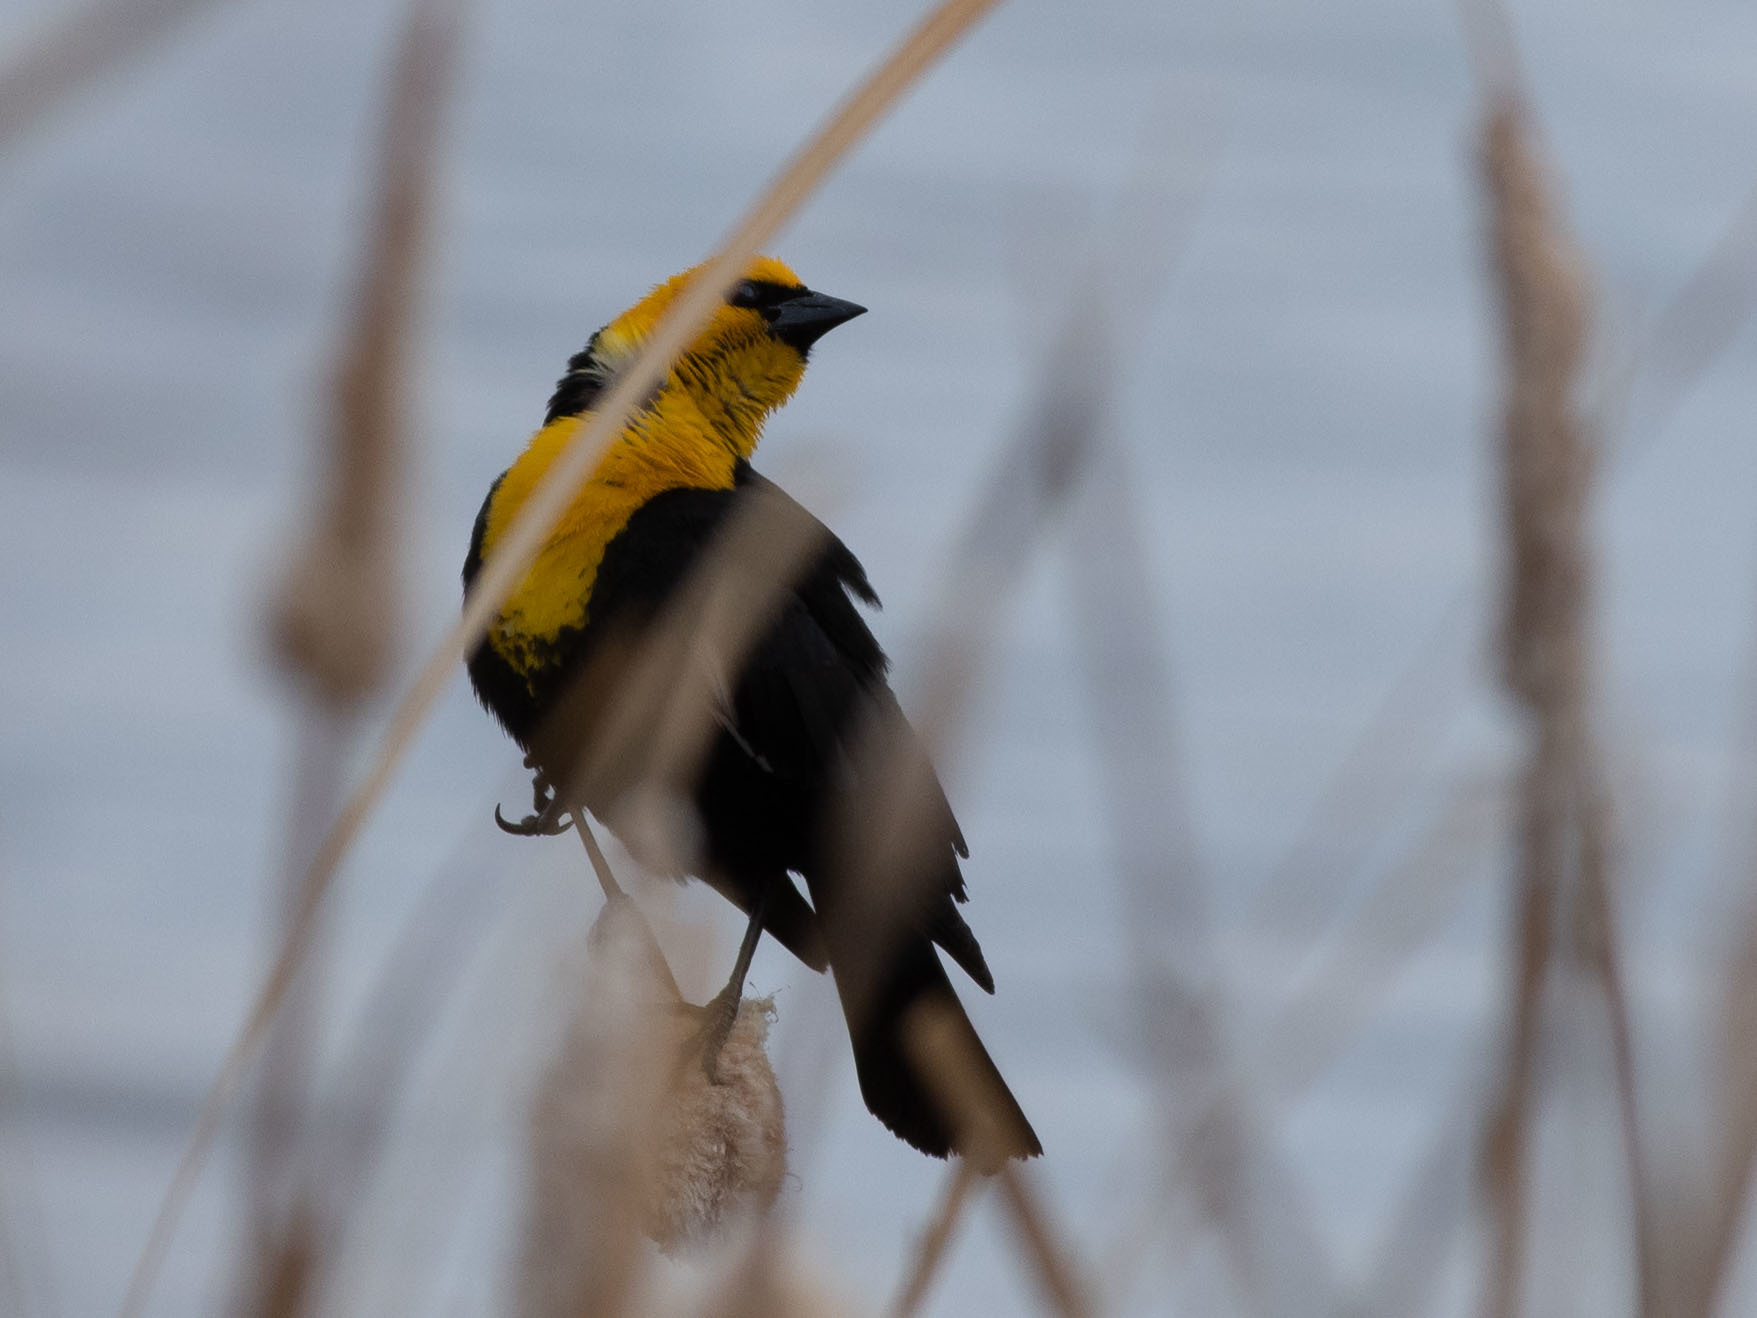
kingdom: Animalia
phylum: Chordata
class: Aves
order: Passeriformes
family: Icteridae
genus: Xanthocephalus
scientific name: Xanthocephalus xanthocephalus
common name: Yellow-headed blackbird
